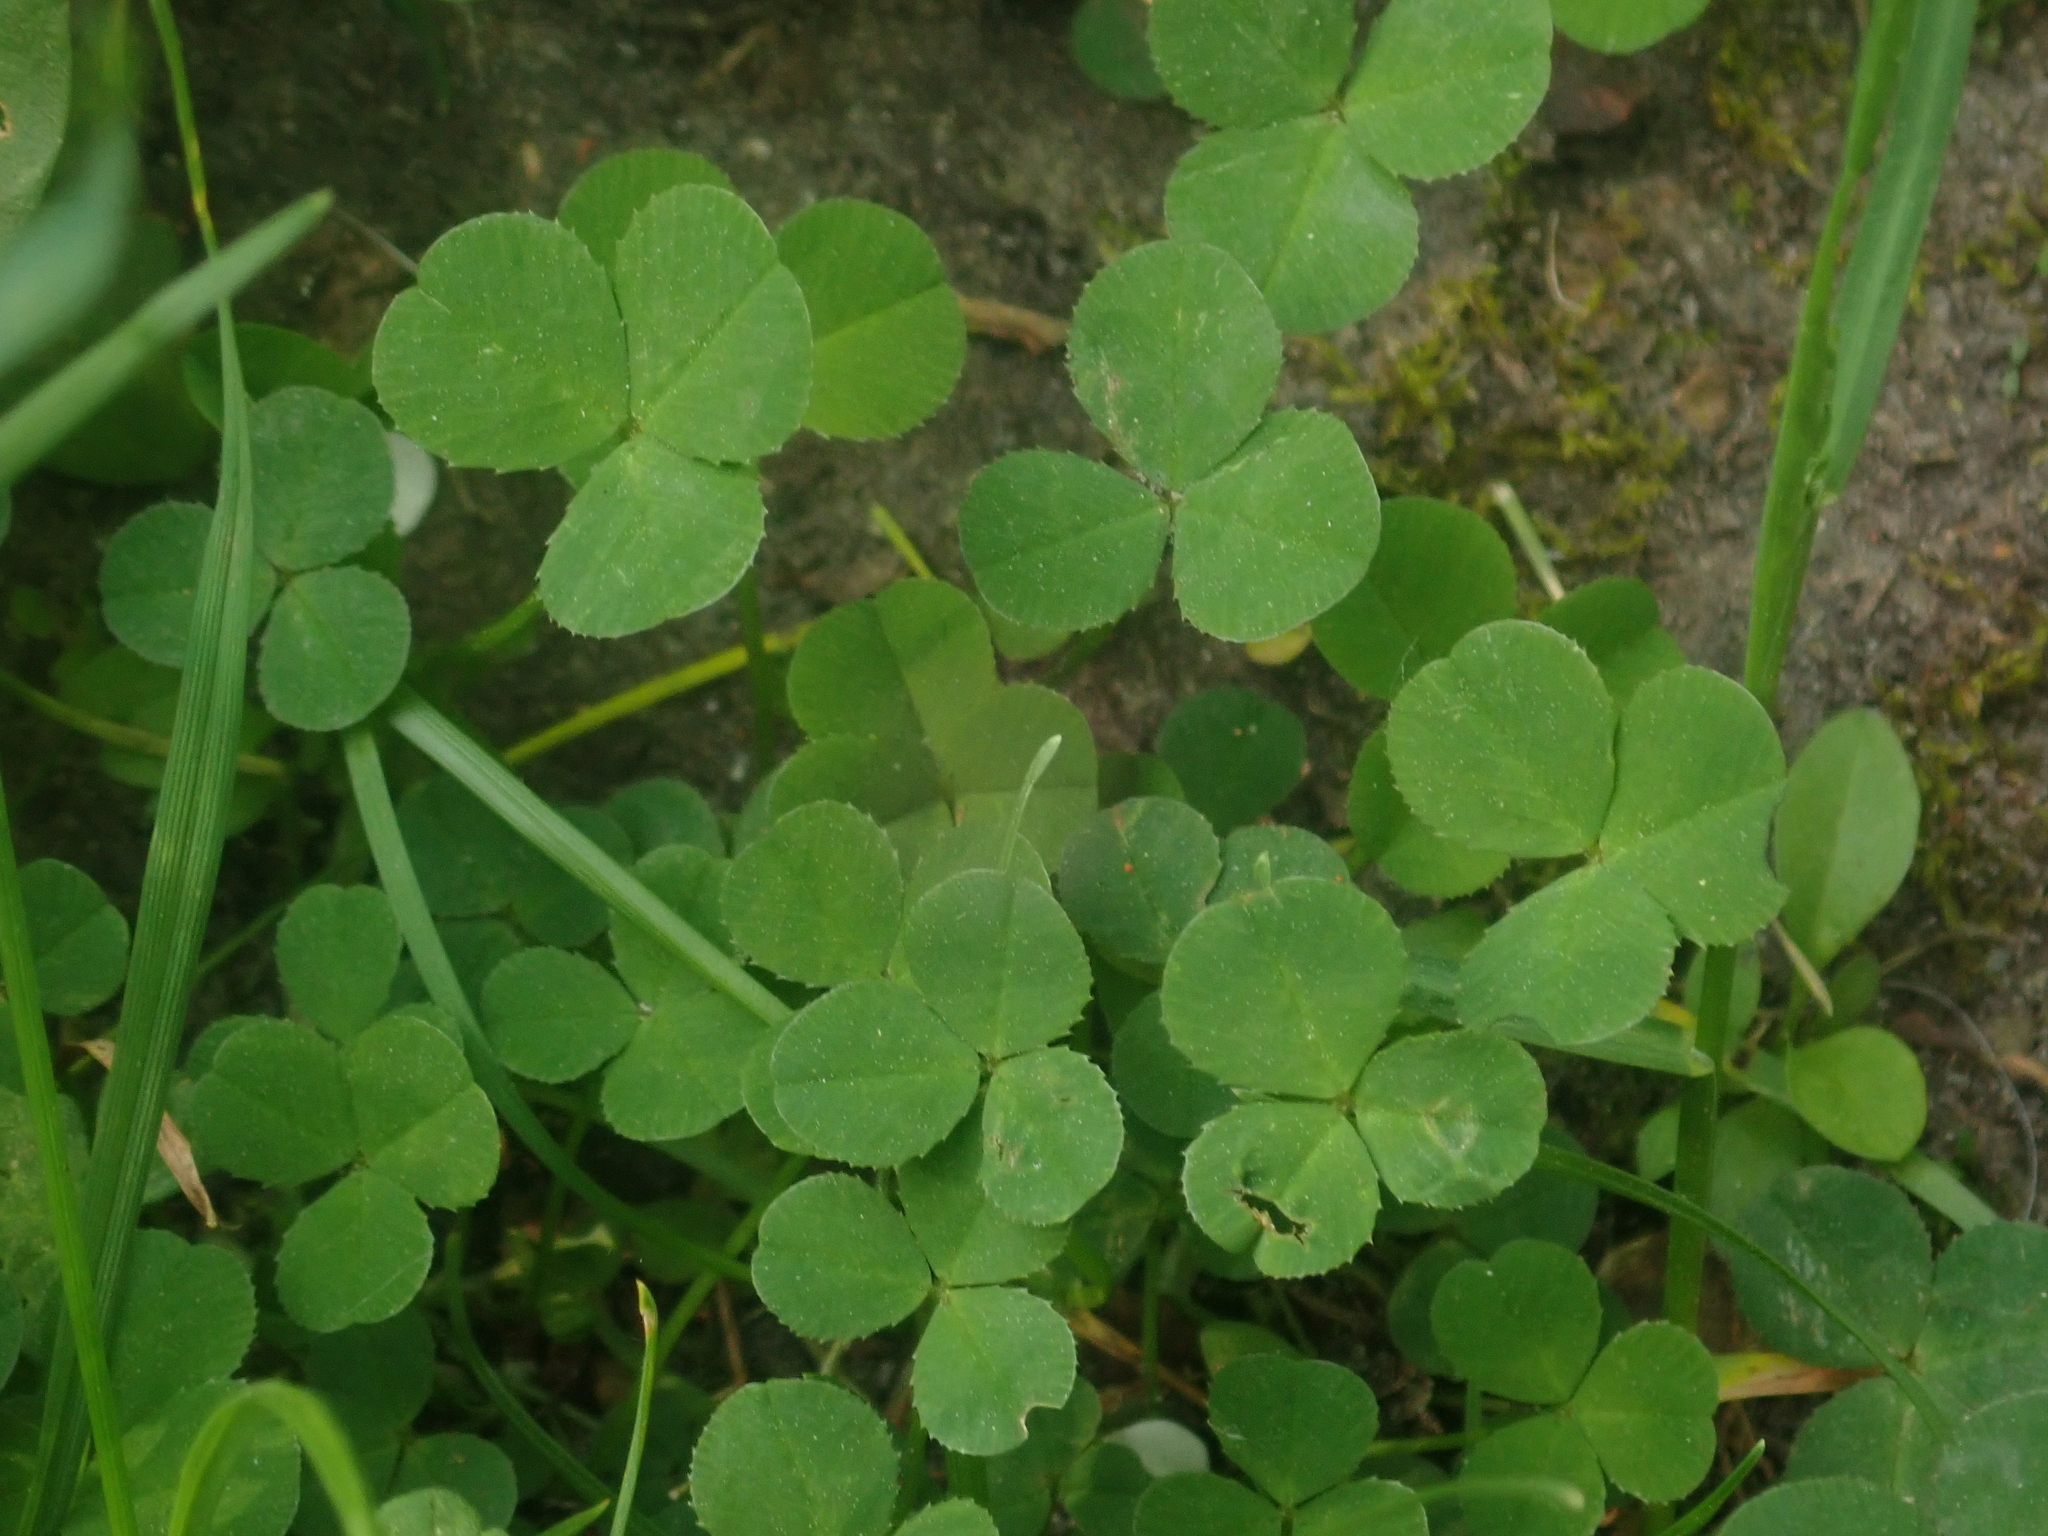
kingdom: Plantae
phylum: Tracheophyta
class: Magnoliopsida
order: Fabales
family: Fabaceae
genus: Trifolium
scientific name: Trifolium repens
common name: White clover
